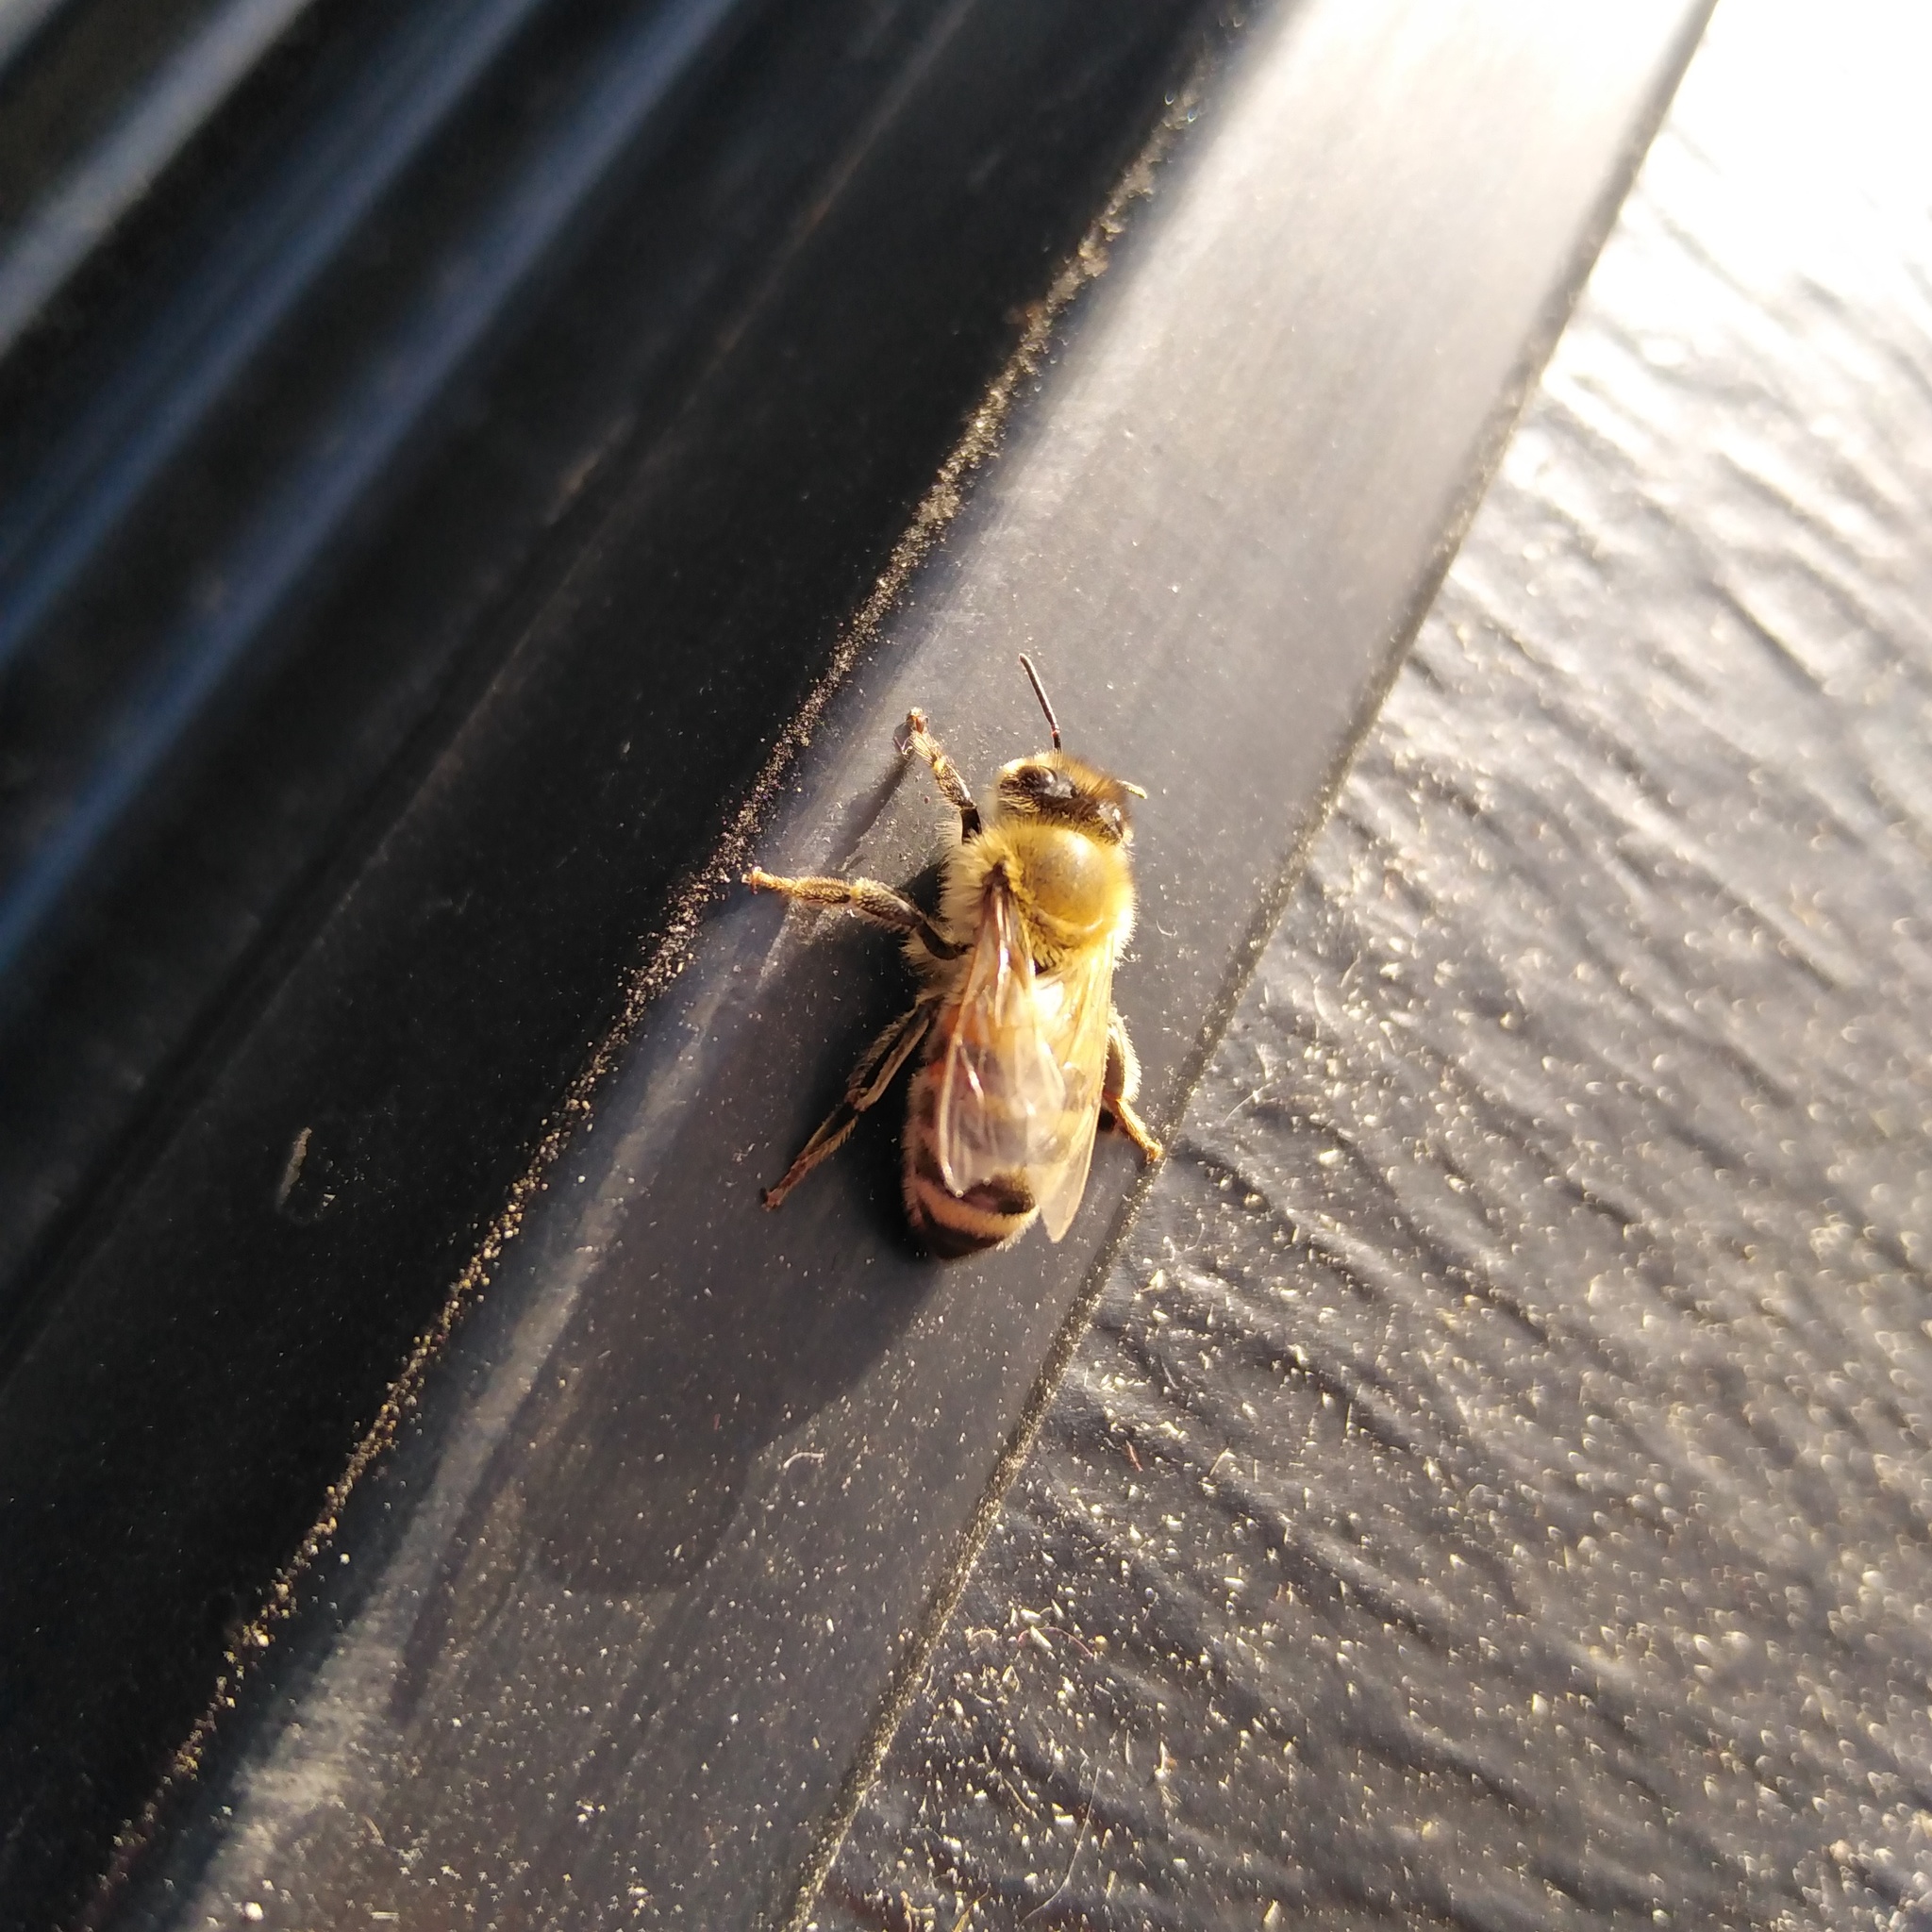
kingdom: Animalia
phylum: Arthropoda
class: Insecta
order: Hymenoptera
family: Apidae
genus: Apis
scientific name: Apis mellifera
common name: Honey bee
